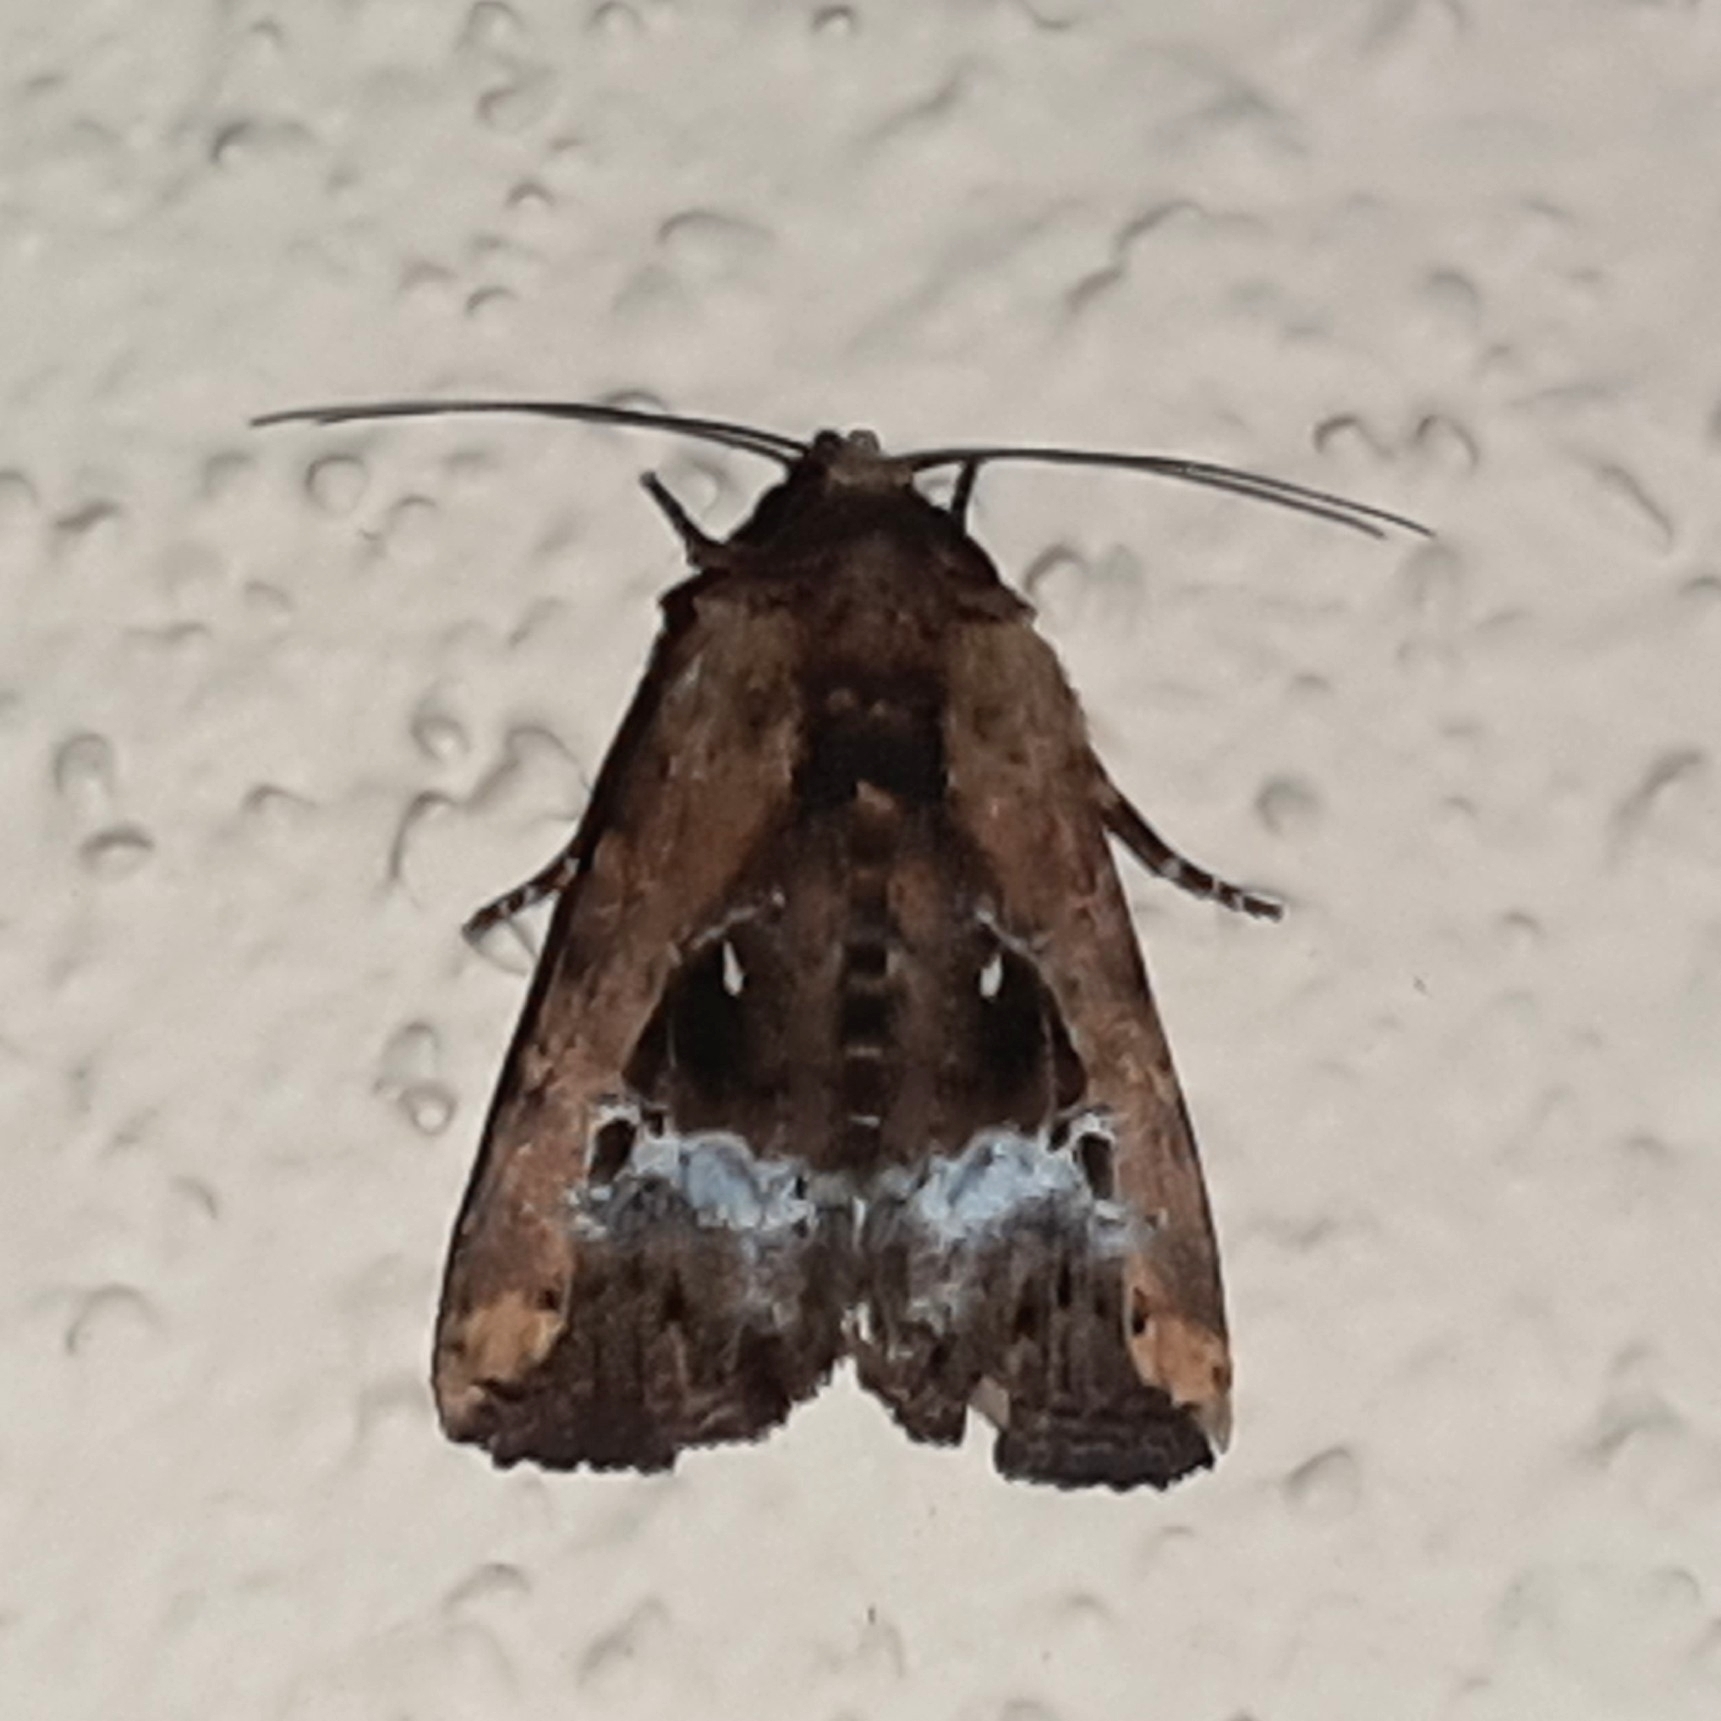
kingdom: Animalia
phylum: Arthropoda
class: Insecta
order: Lepidoptera
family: Noctuidae
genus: Elaphria
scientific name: Elaphria subobliqua
